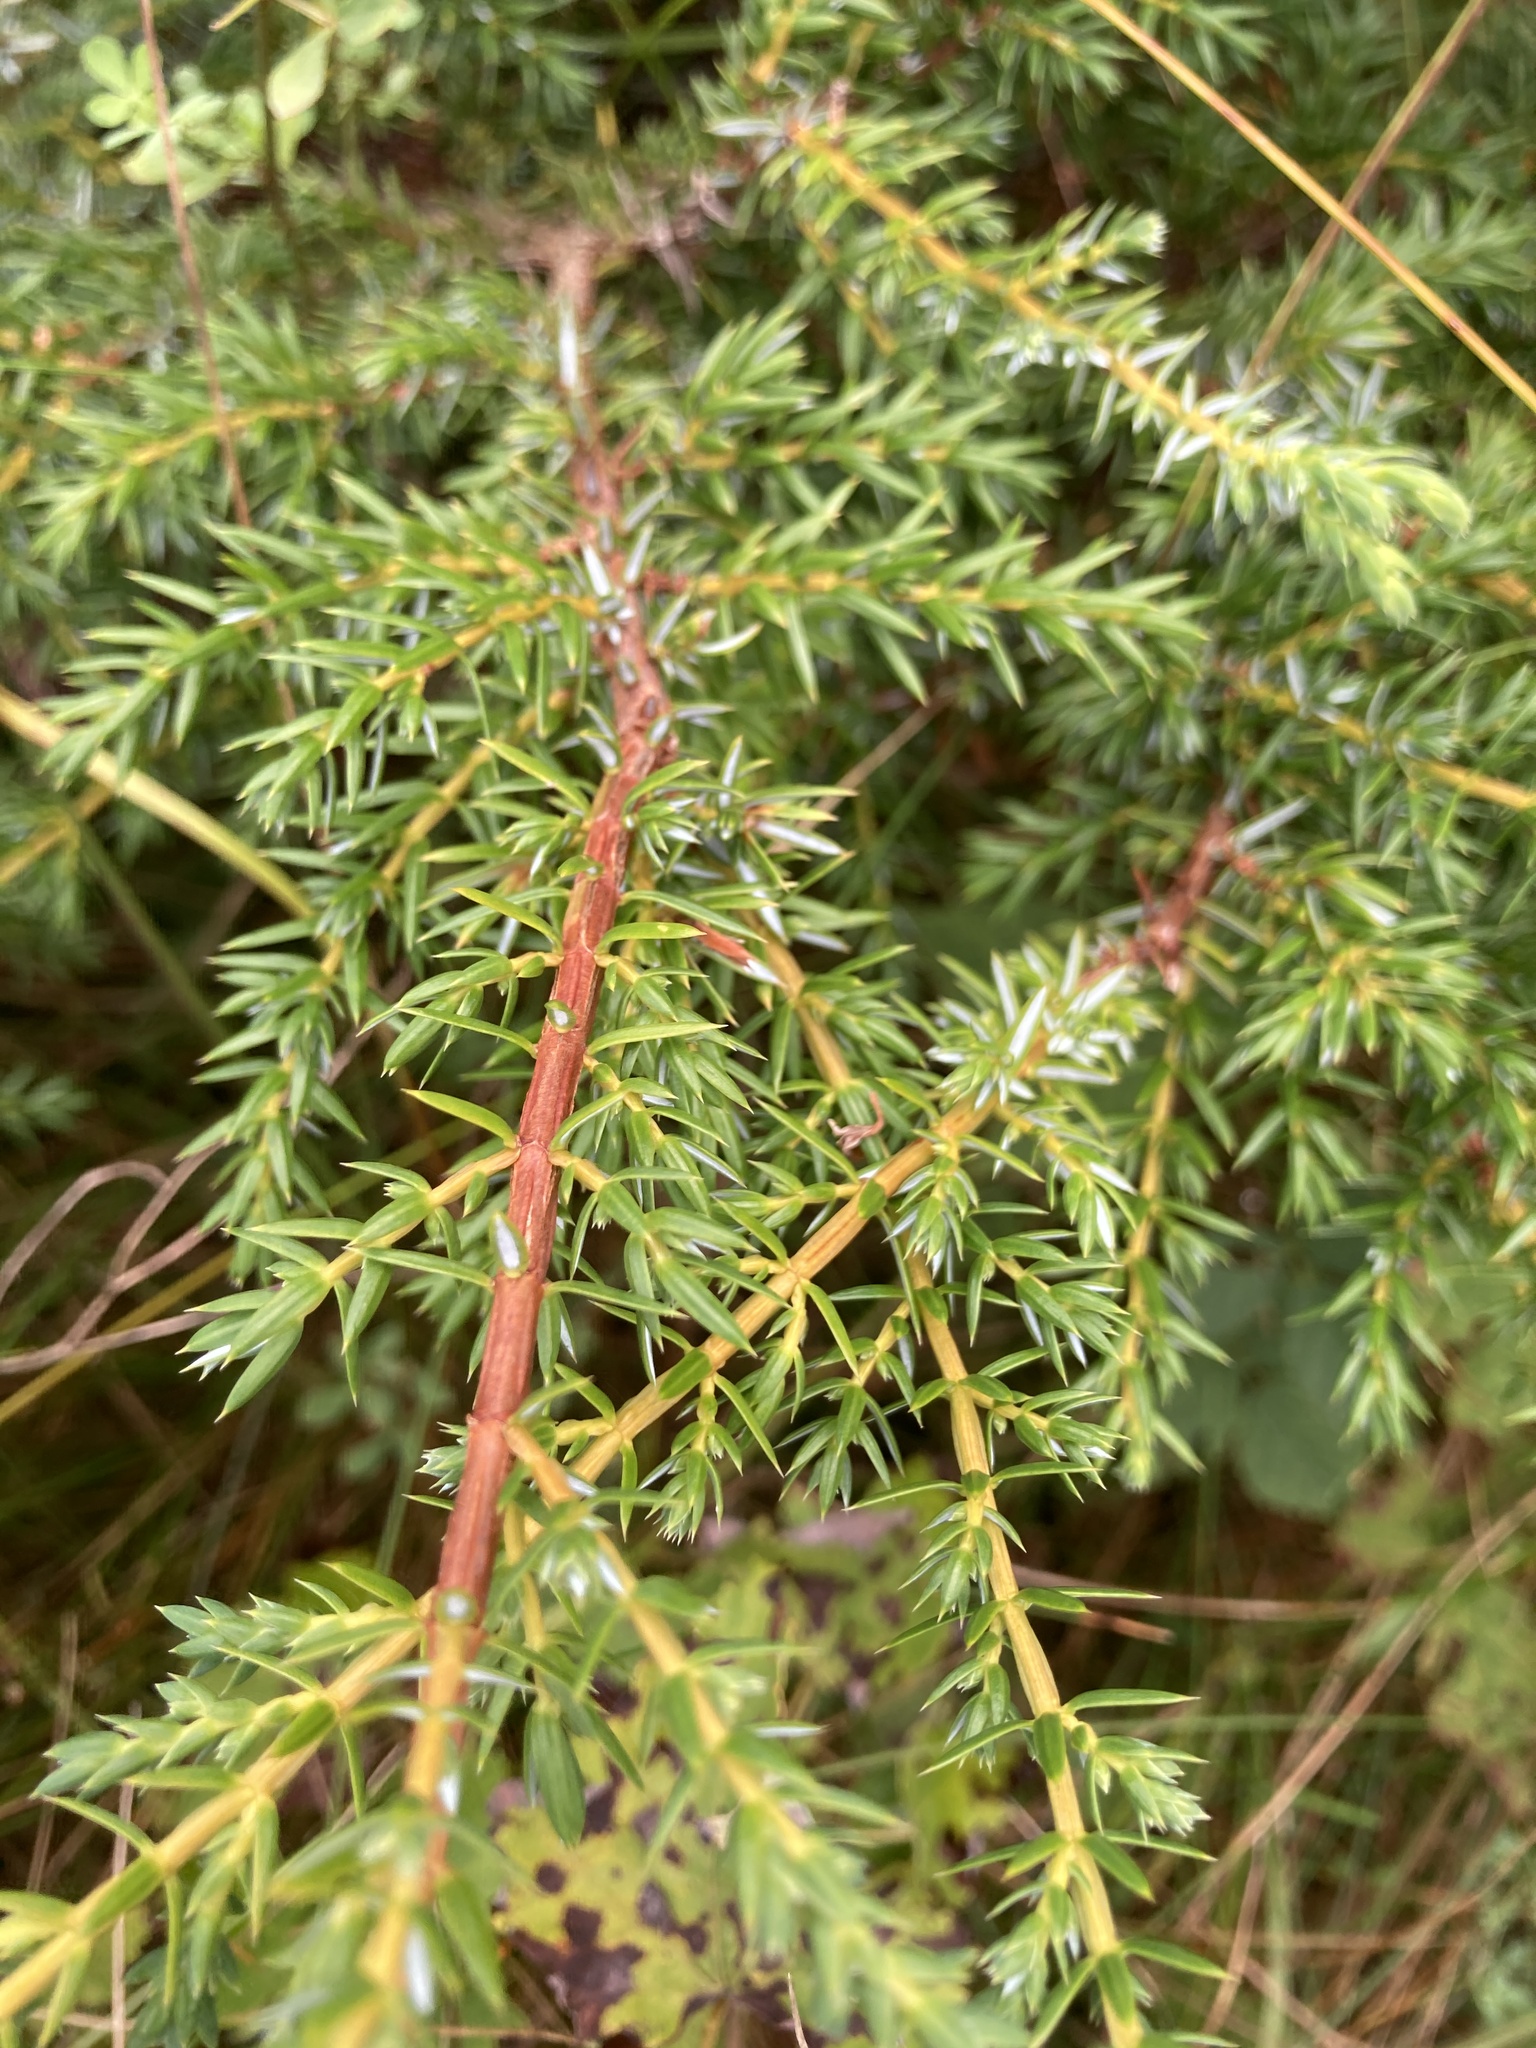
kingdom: Plantae
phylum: Tracheophyta
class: Pinopsida
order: Pinales
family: Cupressaceae
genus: Juniperus
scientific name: Juniperus communis
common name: Common juniper
